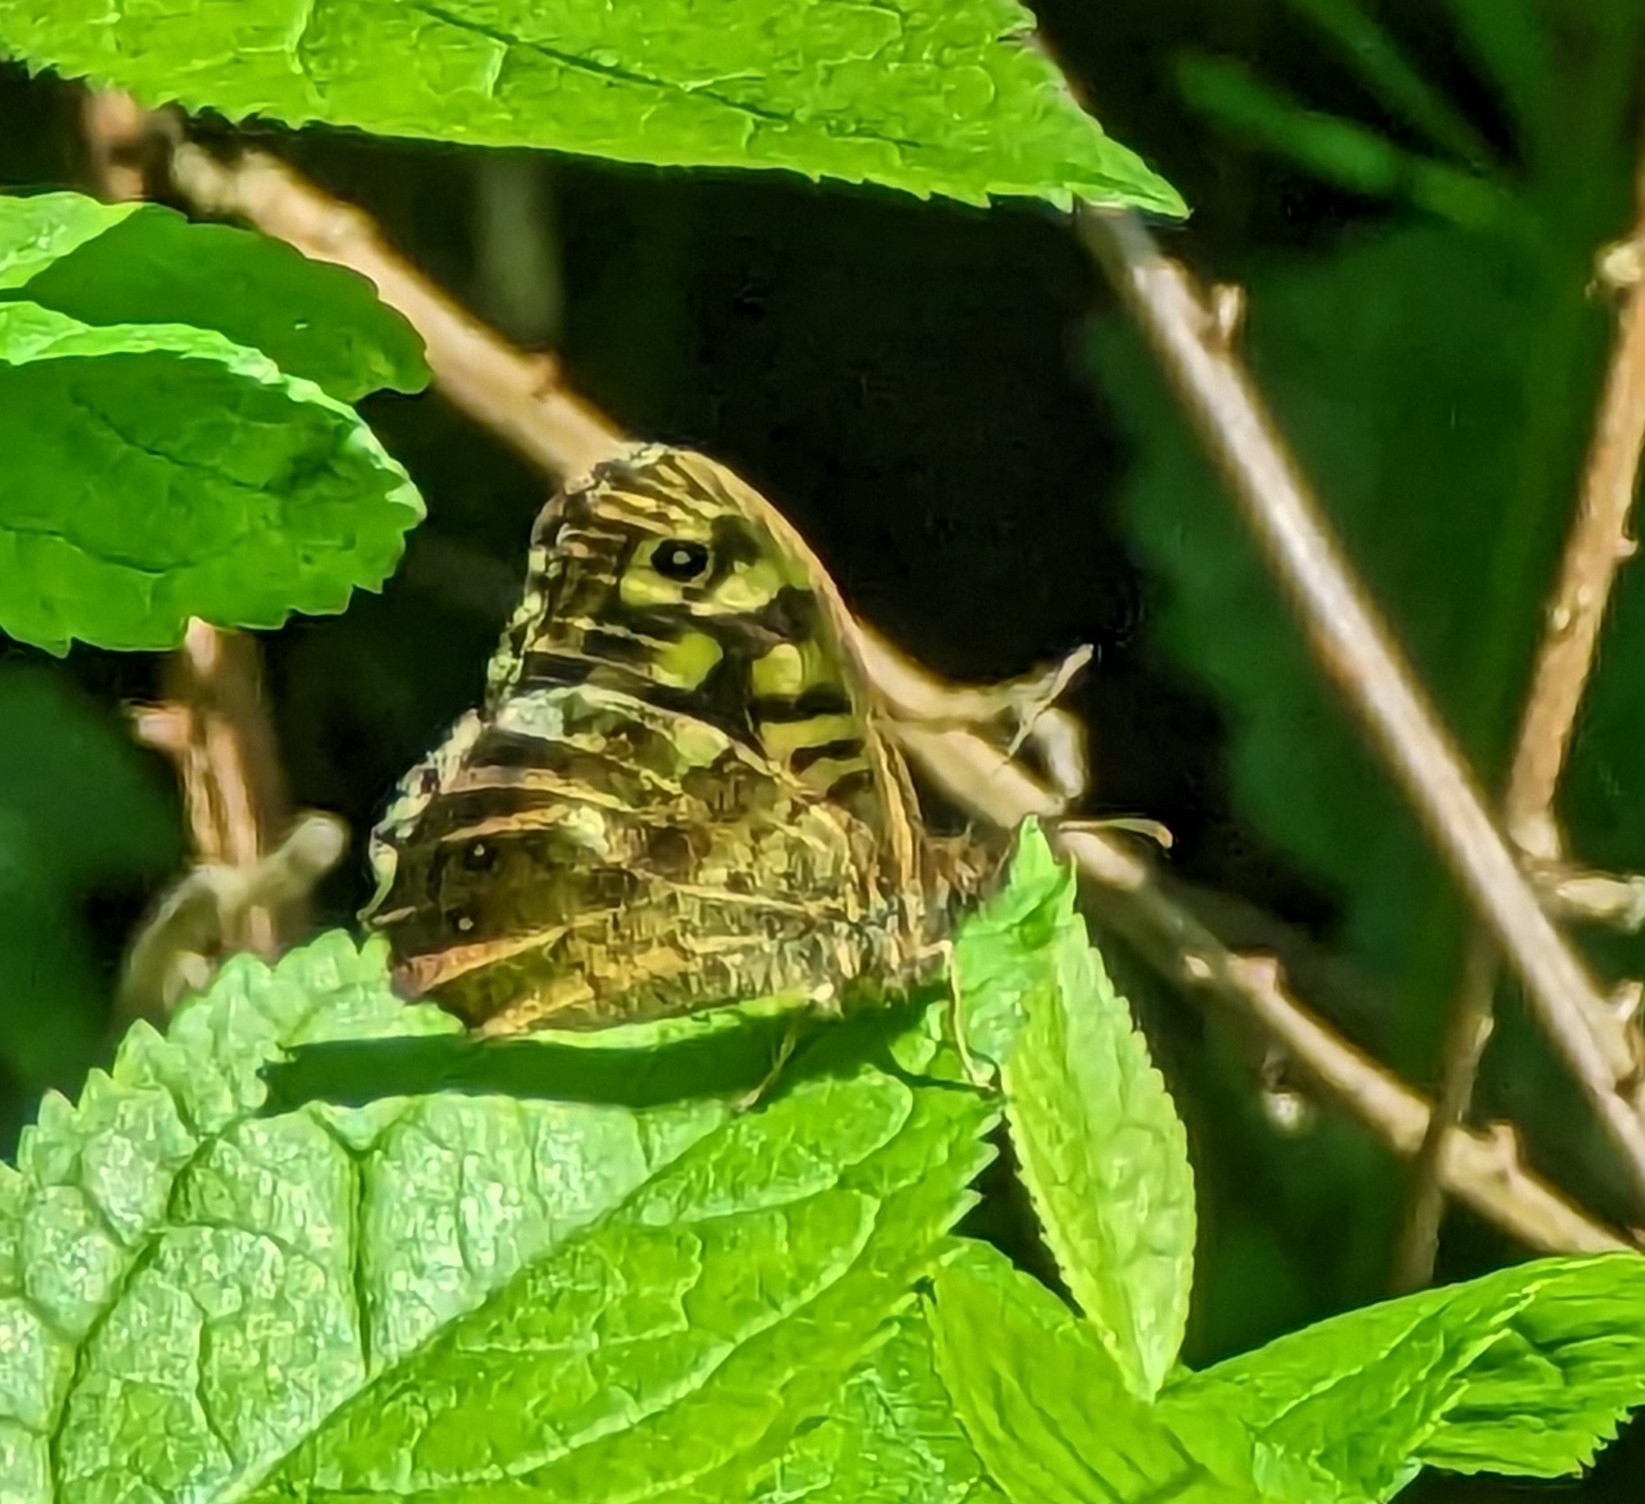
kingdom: Animalia
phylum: Arthropoda
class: Insecta
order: Lepidoptera
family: Nymphalidae
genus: Pararge
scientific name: Pararge aegeria
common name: Speckled wood
